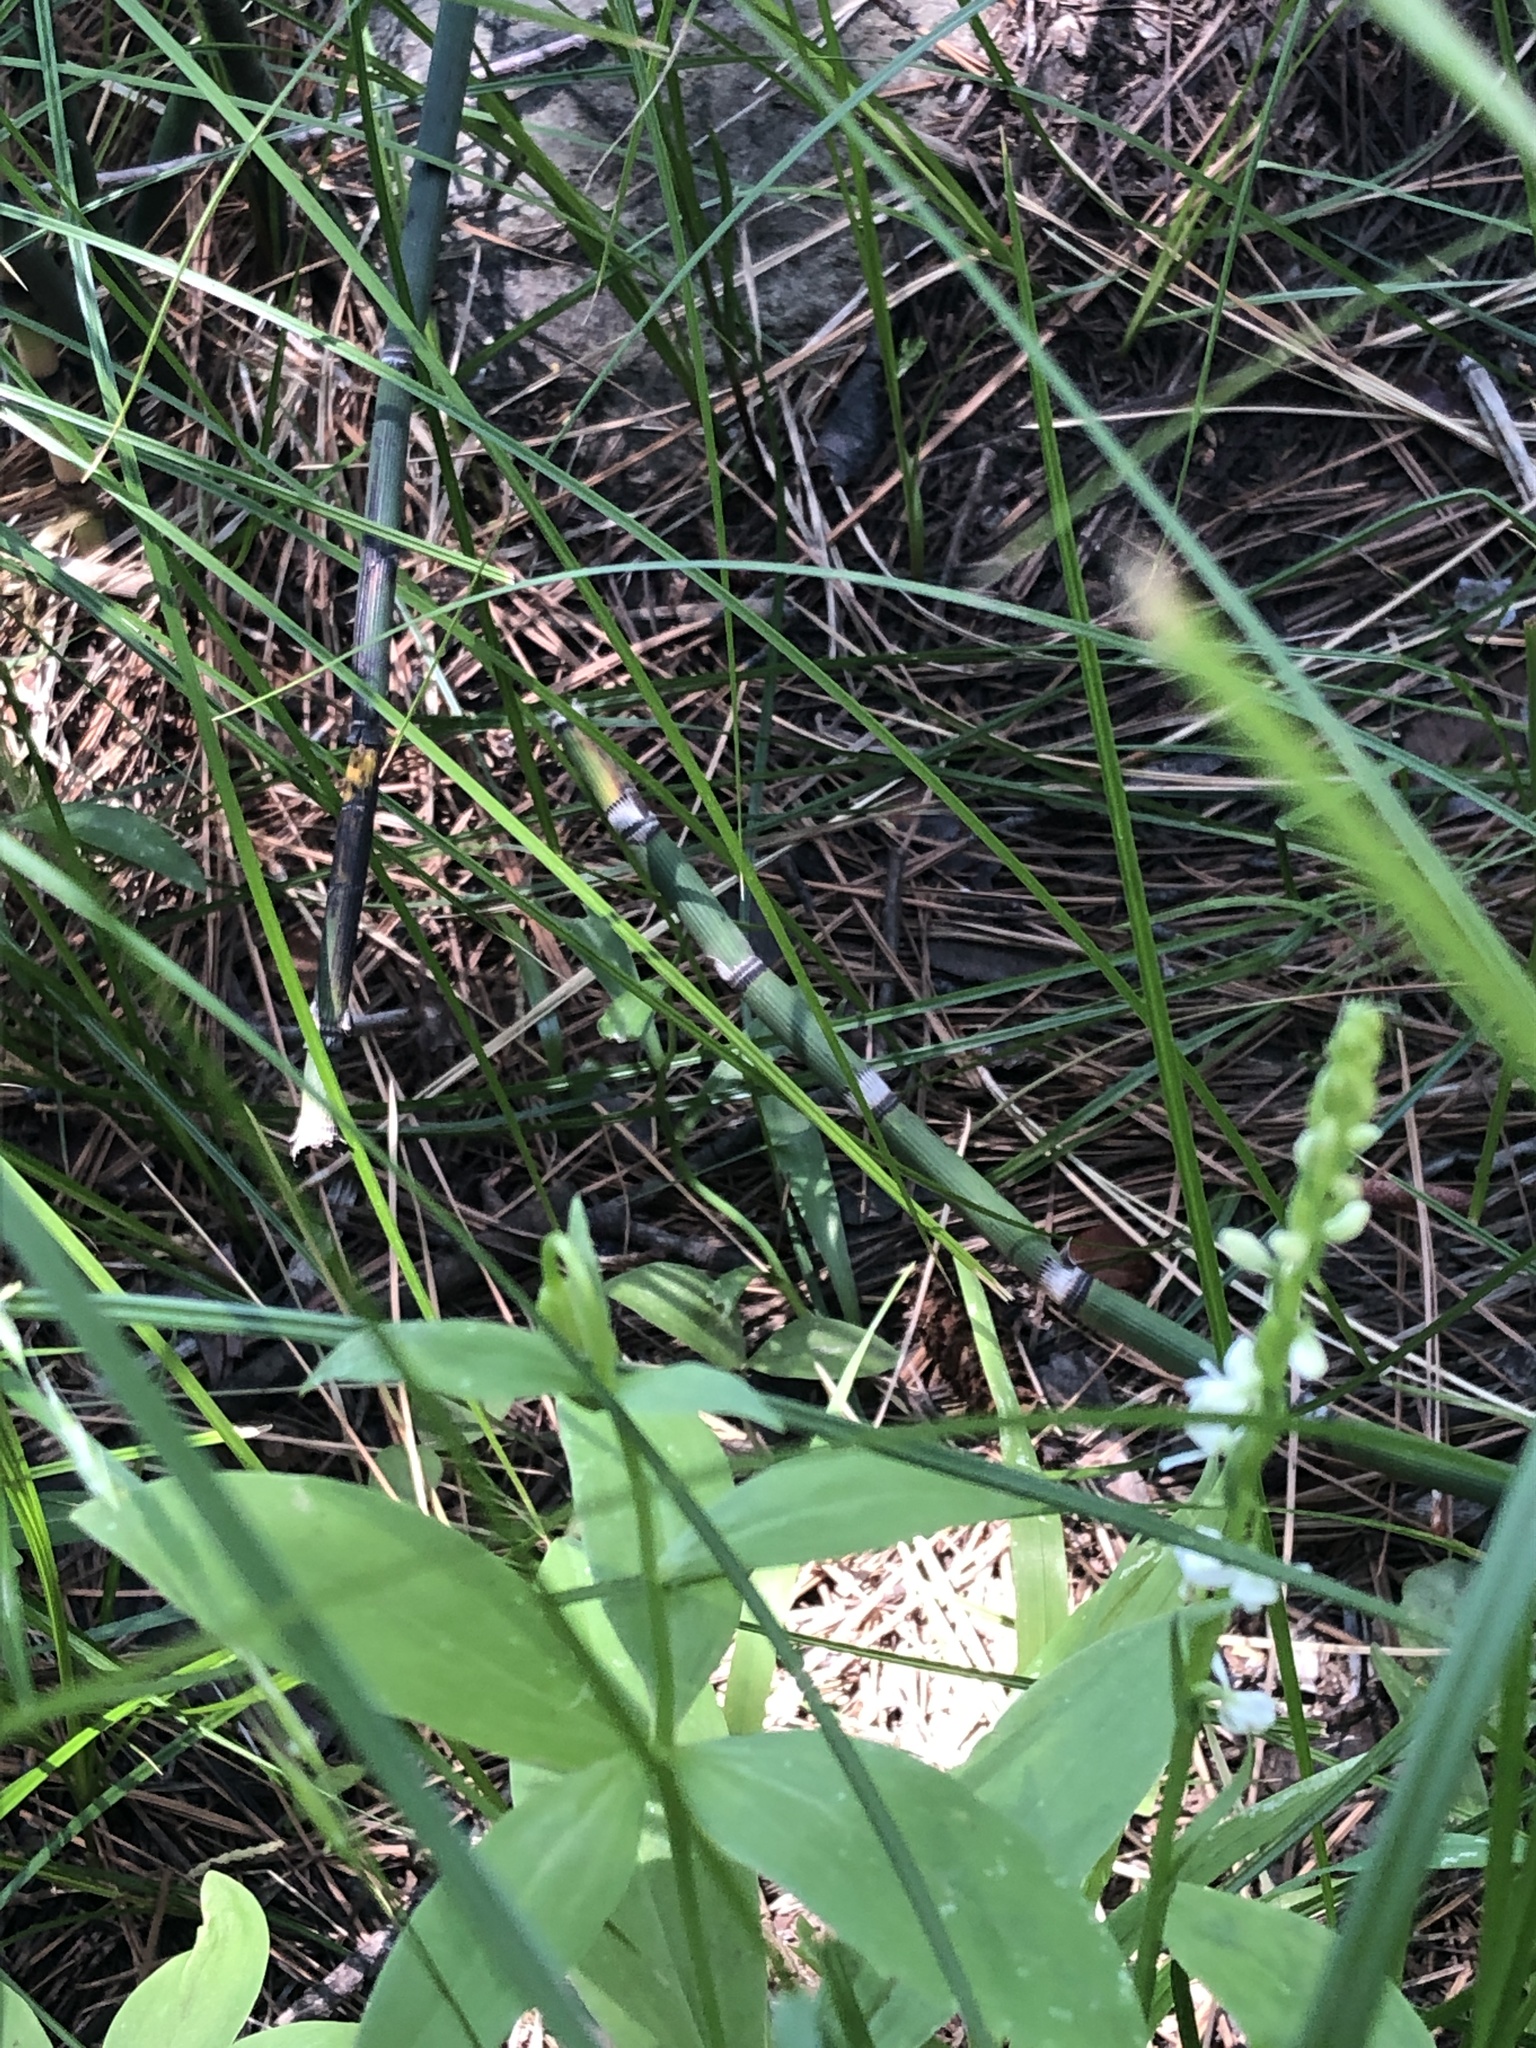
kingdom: Plantae
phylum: Tracheophyta
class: Liliopsida
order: Asparagales
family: Orchidaceae
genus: Platanthera
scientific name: Platanthera dilatata
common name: Bog candles
